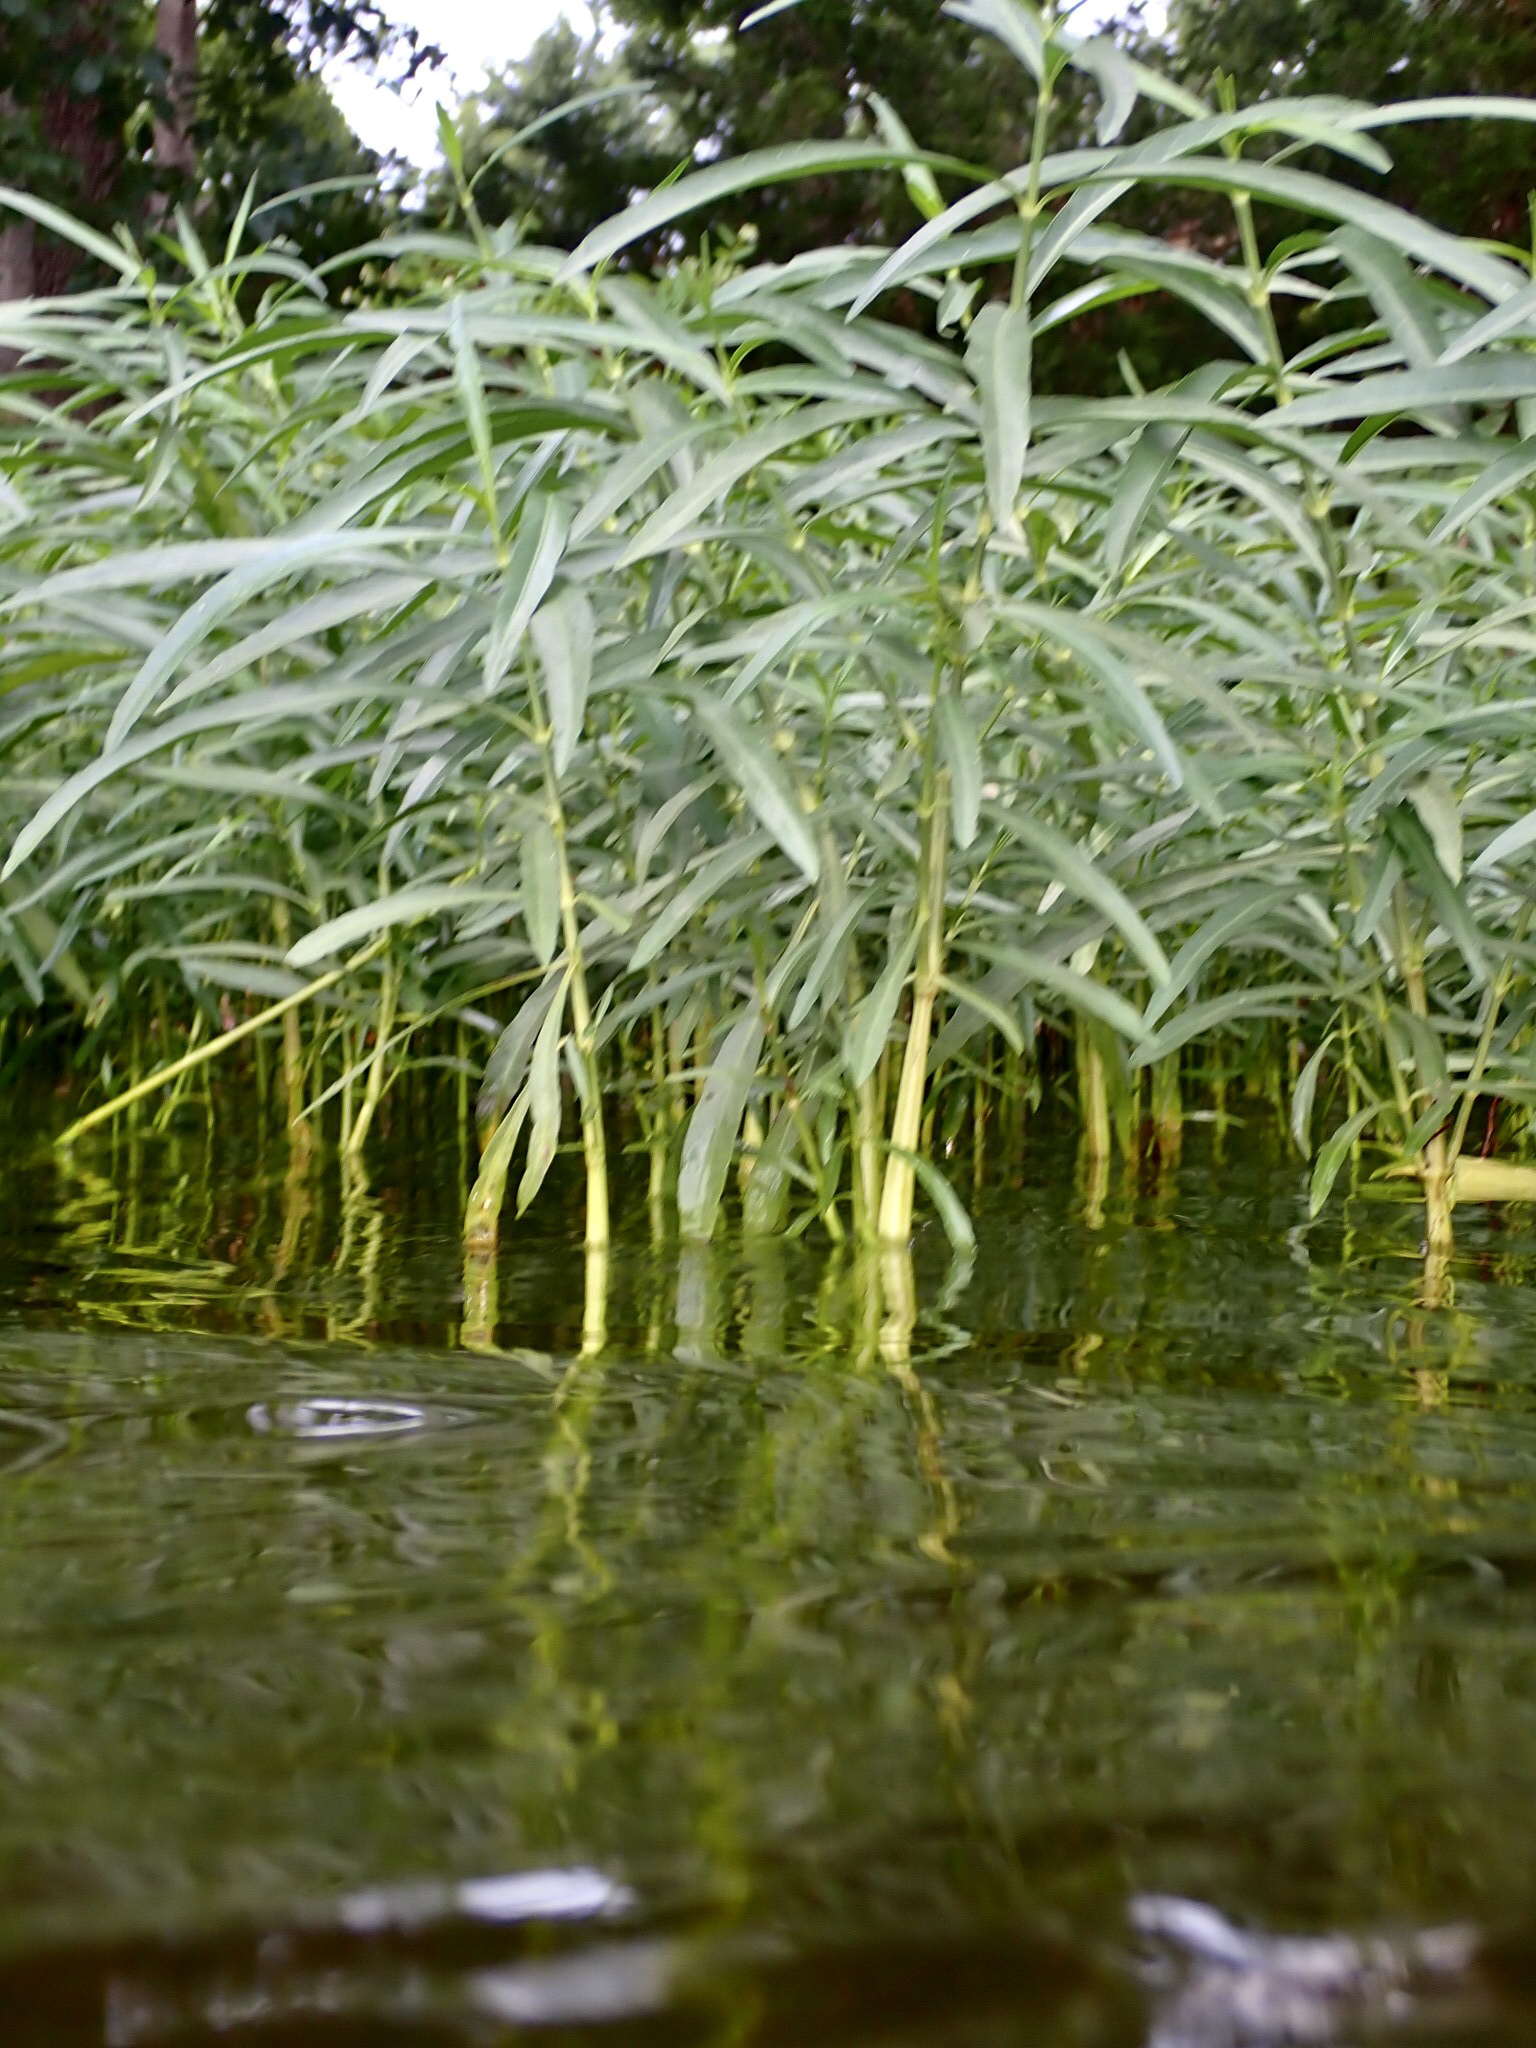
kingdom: Plantae
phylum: Tracheophyta
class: Magnoliopsida
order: Lamiales
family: Acanthaceae
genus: Dianthera
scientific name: Dianthera americana
